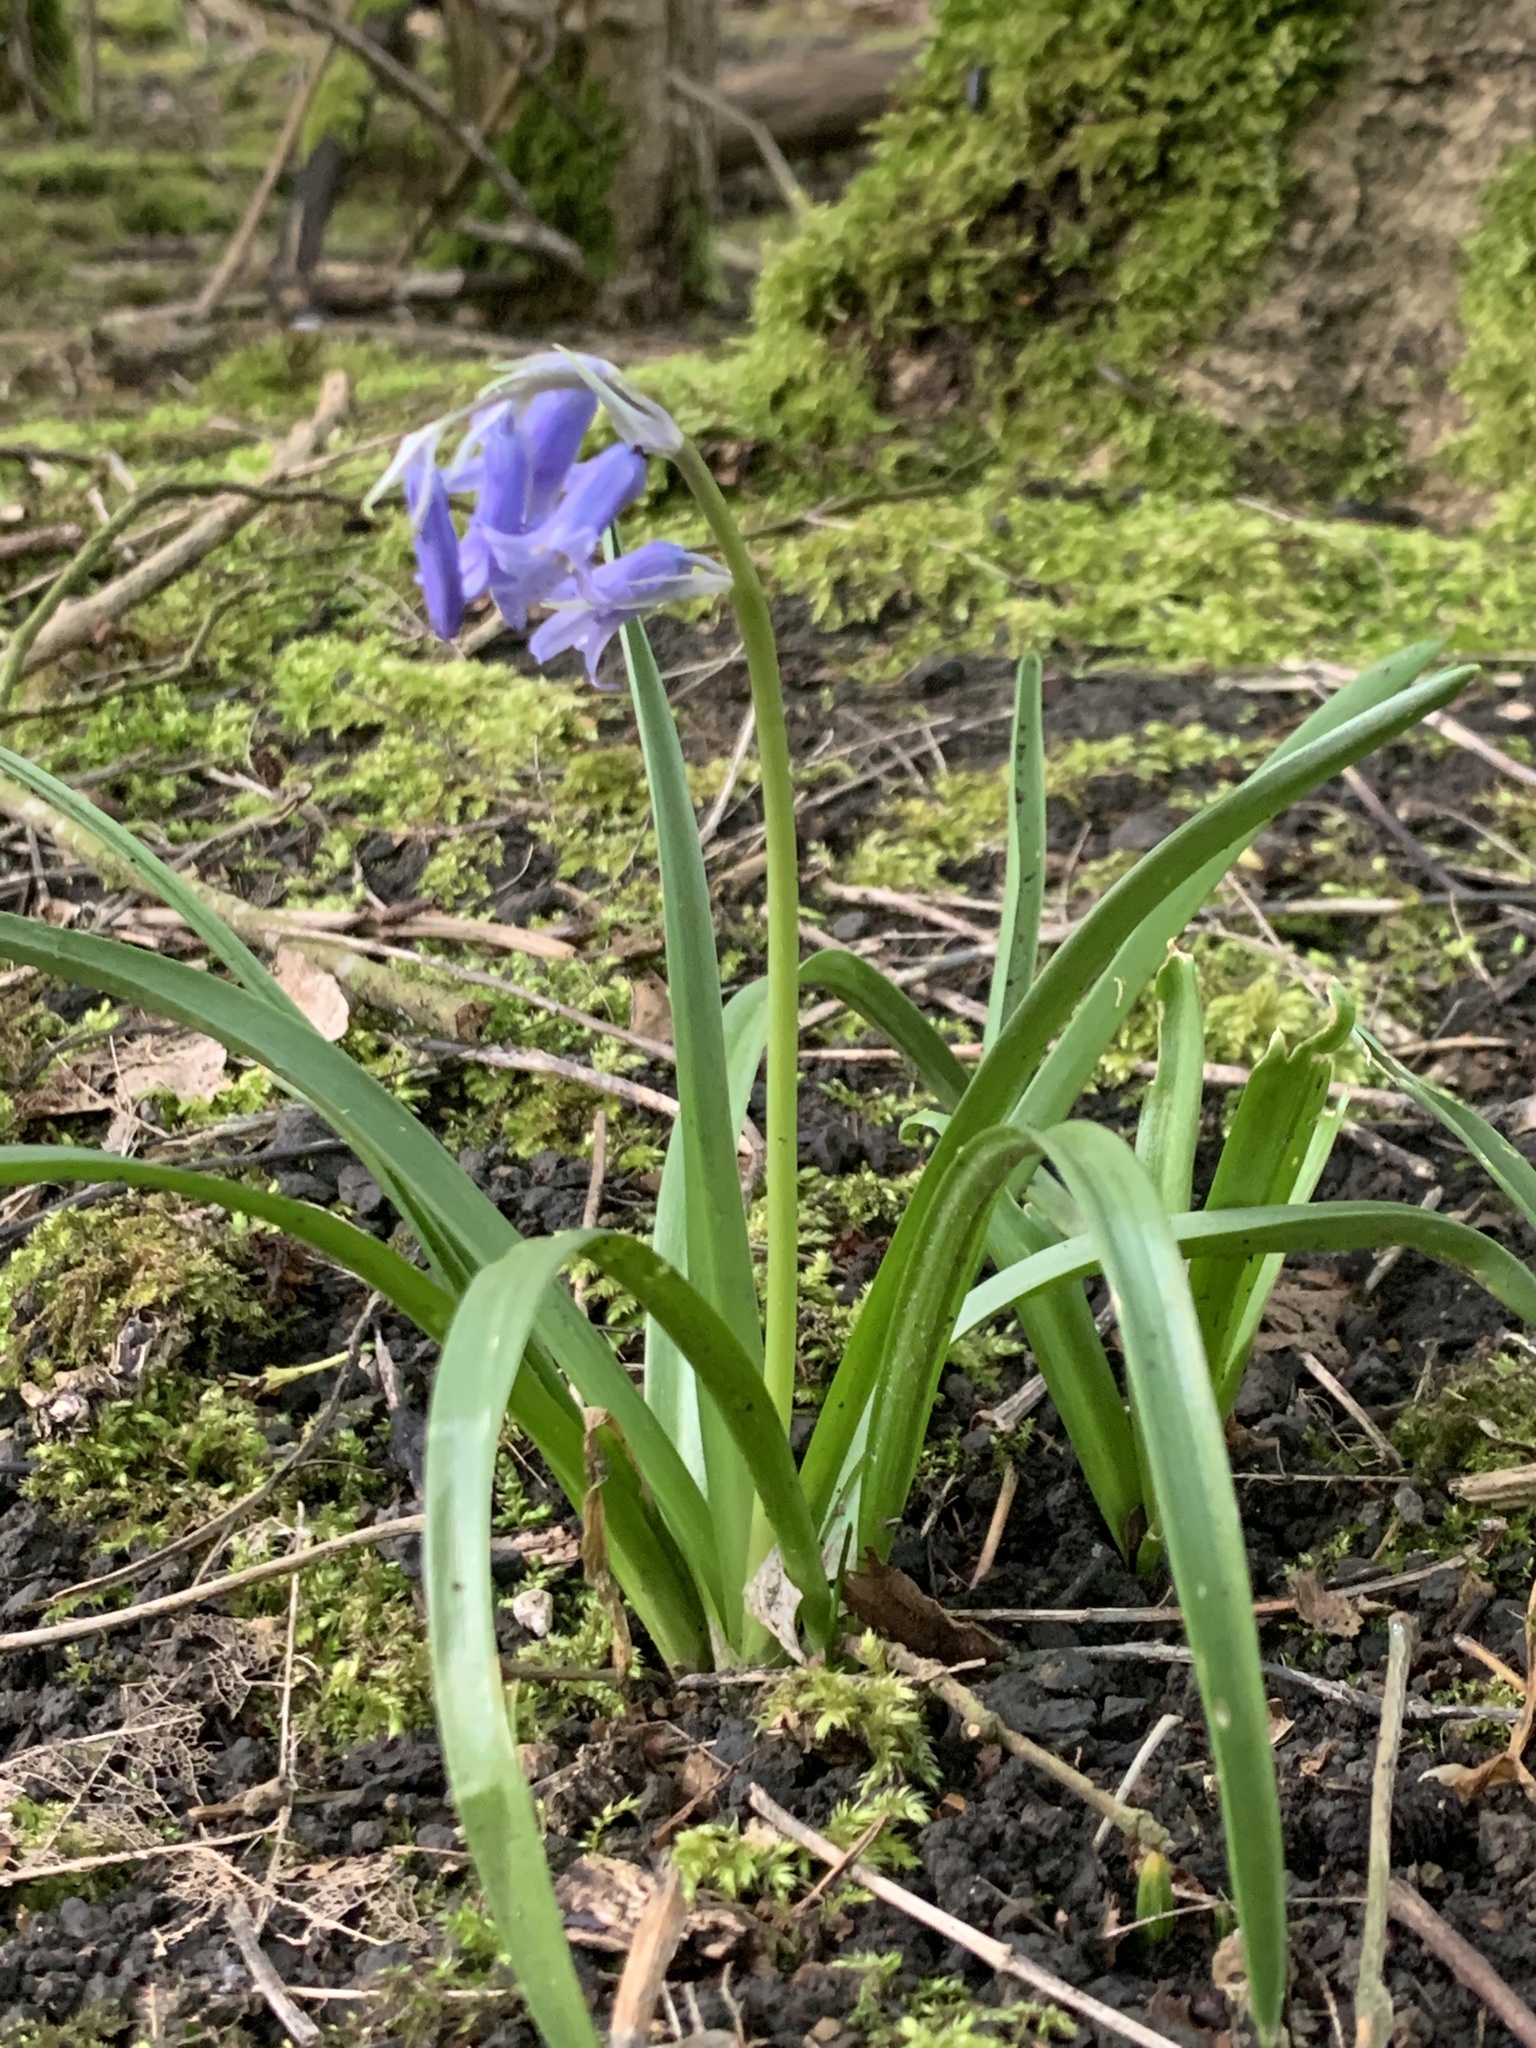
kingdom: Plantae
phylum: Tracheophyta
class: Liliopsida
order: Asparagales
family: Asparagaceae
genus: Hyacinthoides
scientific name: Hyacinthoides non-scripta
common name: Bluebell
